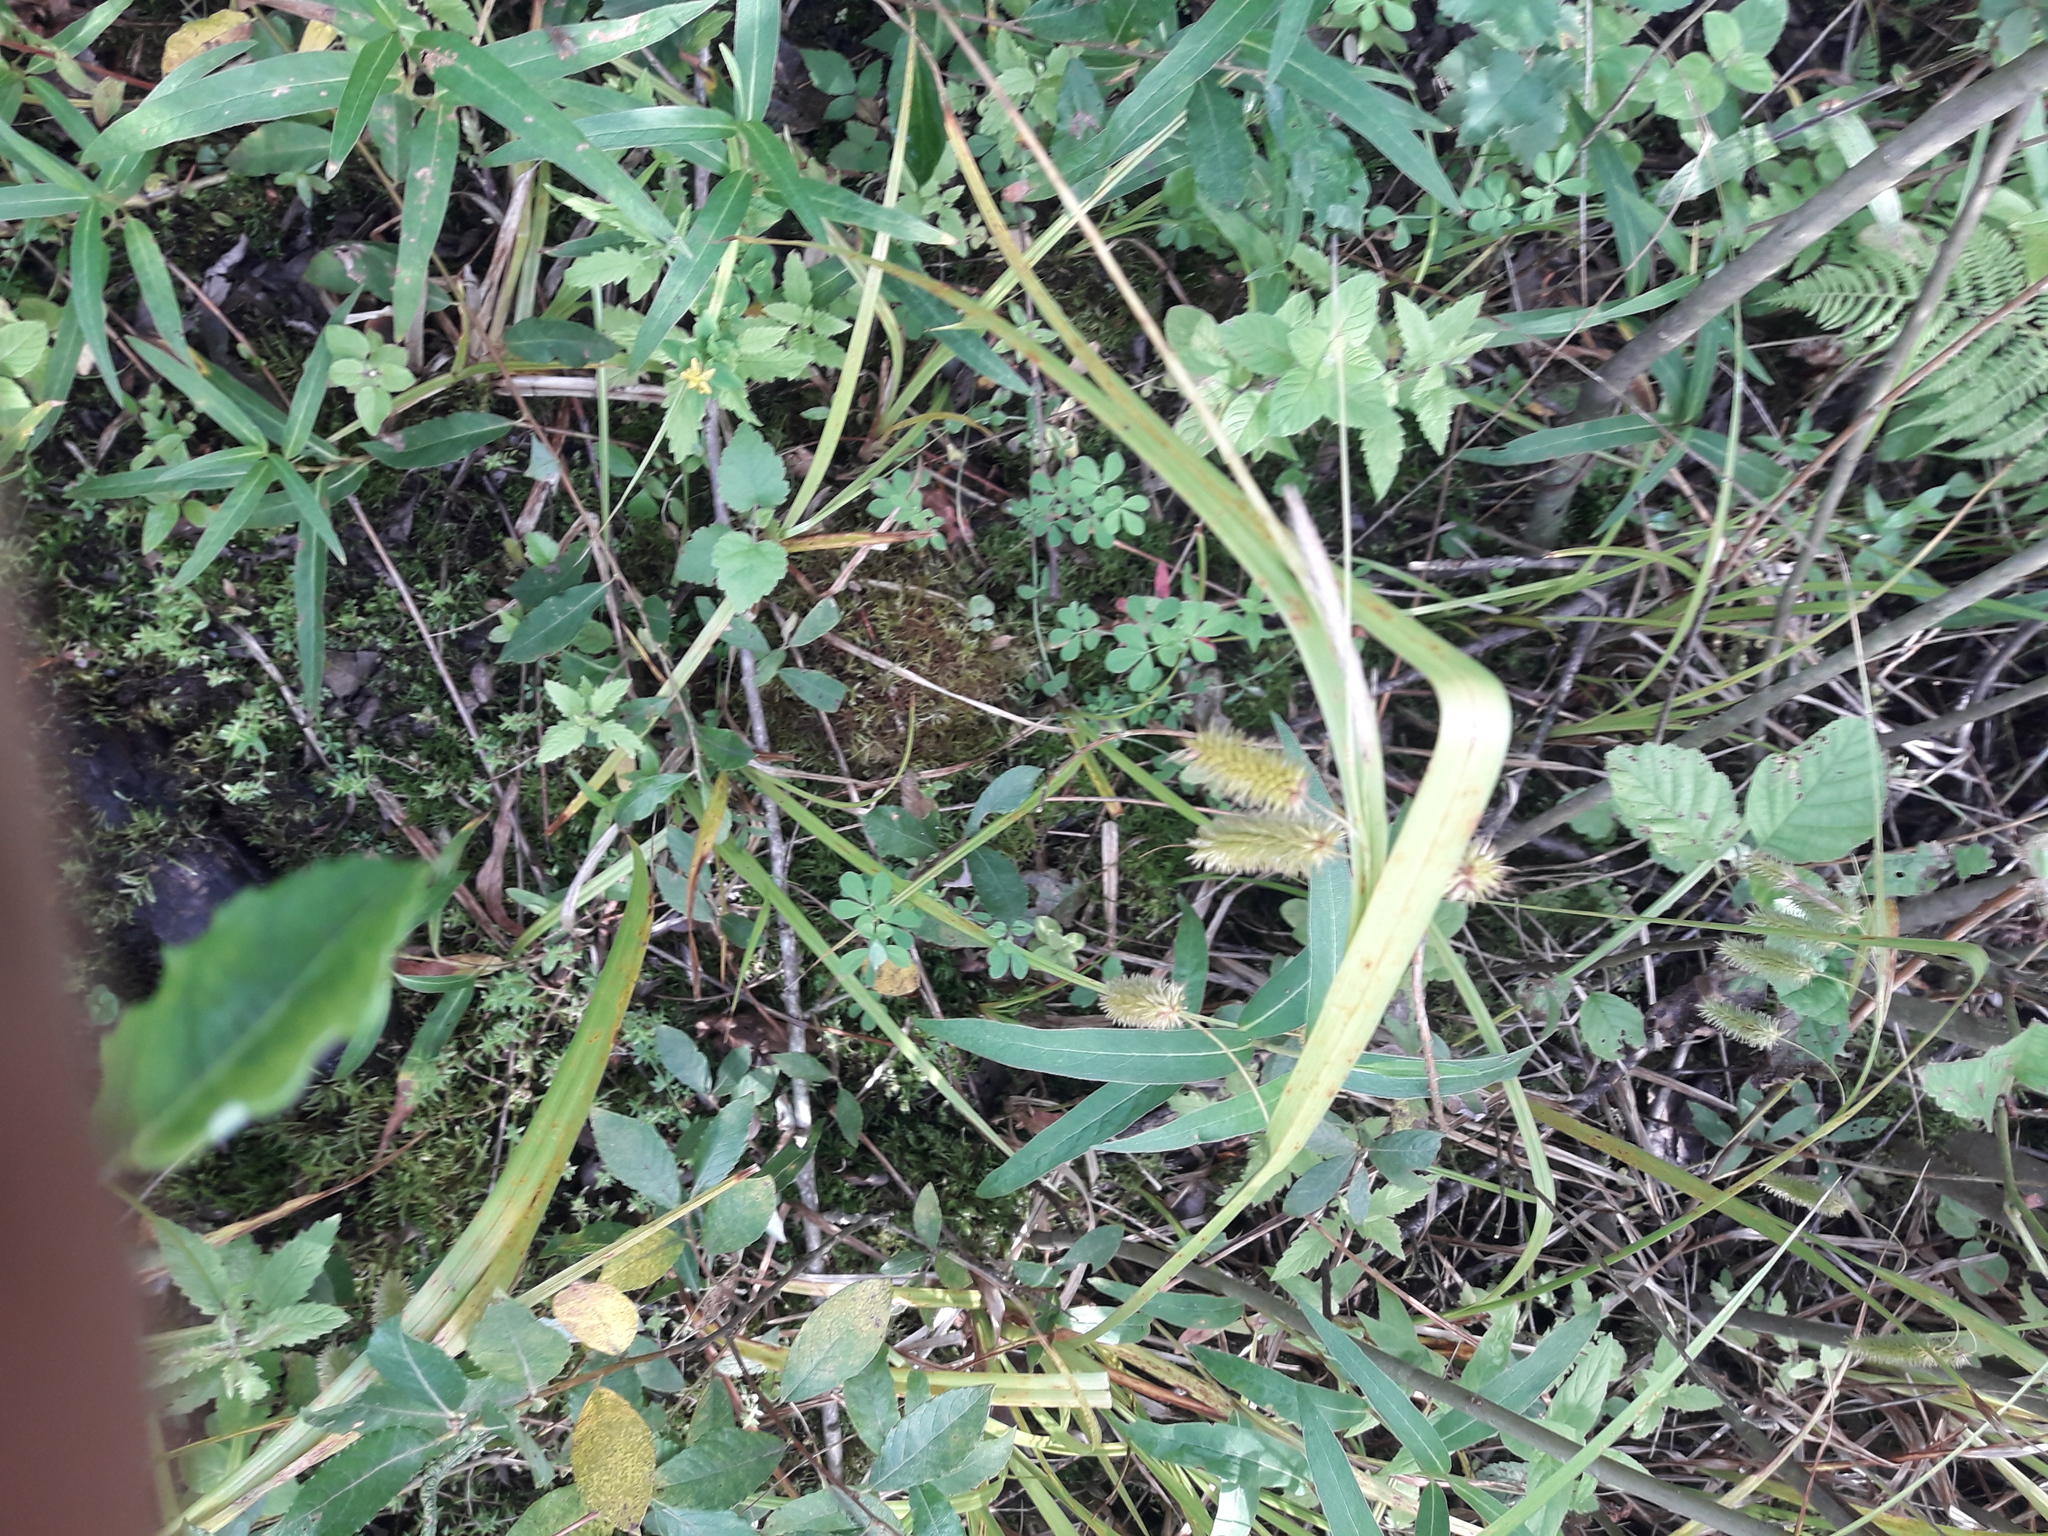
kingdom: Plantae
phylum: Tracheophyta
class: Magnoliopsida
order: Fabales
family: Fabaceae
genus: Lotus
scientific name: Lotus corniculatus
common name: Common bird's-foot-trefoil
